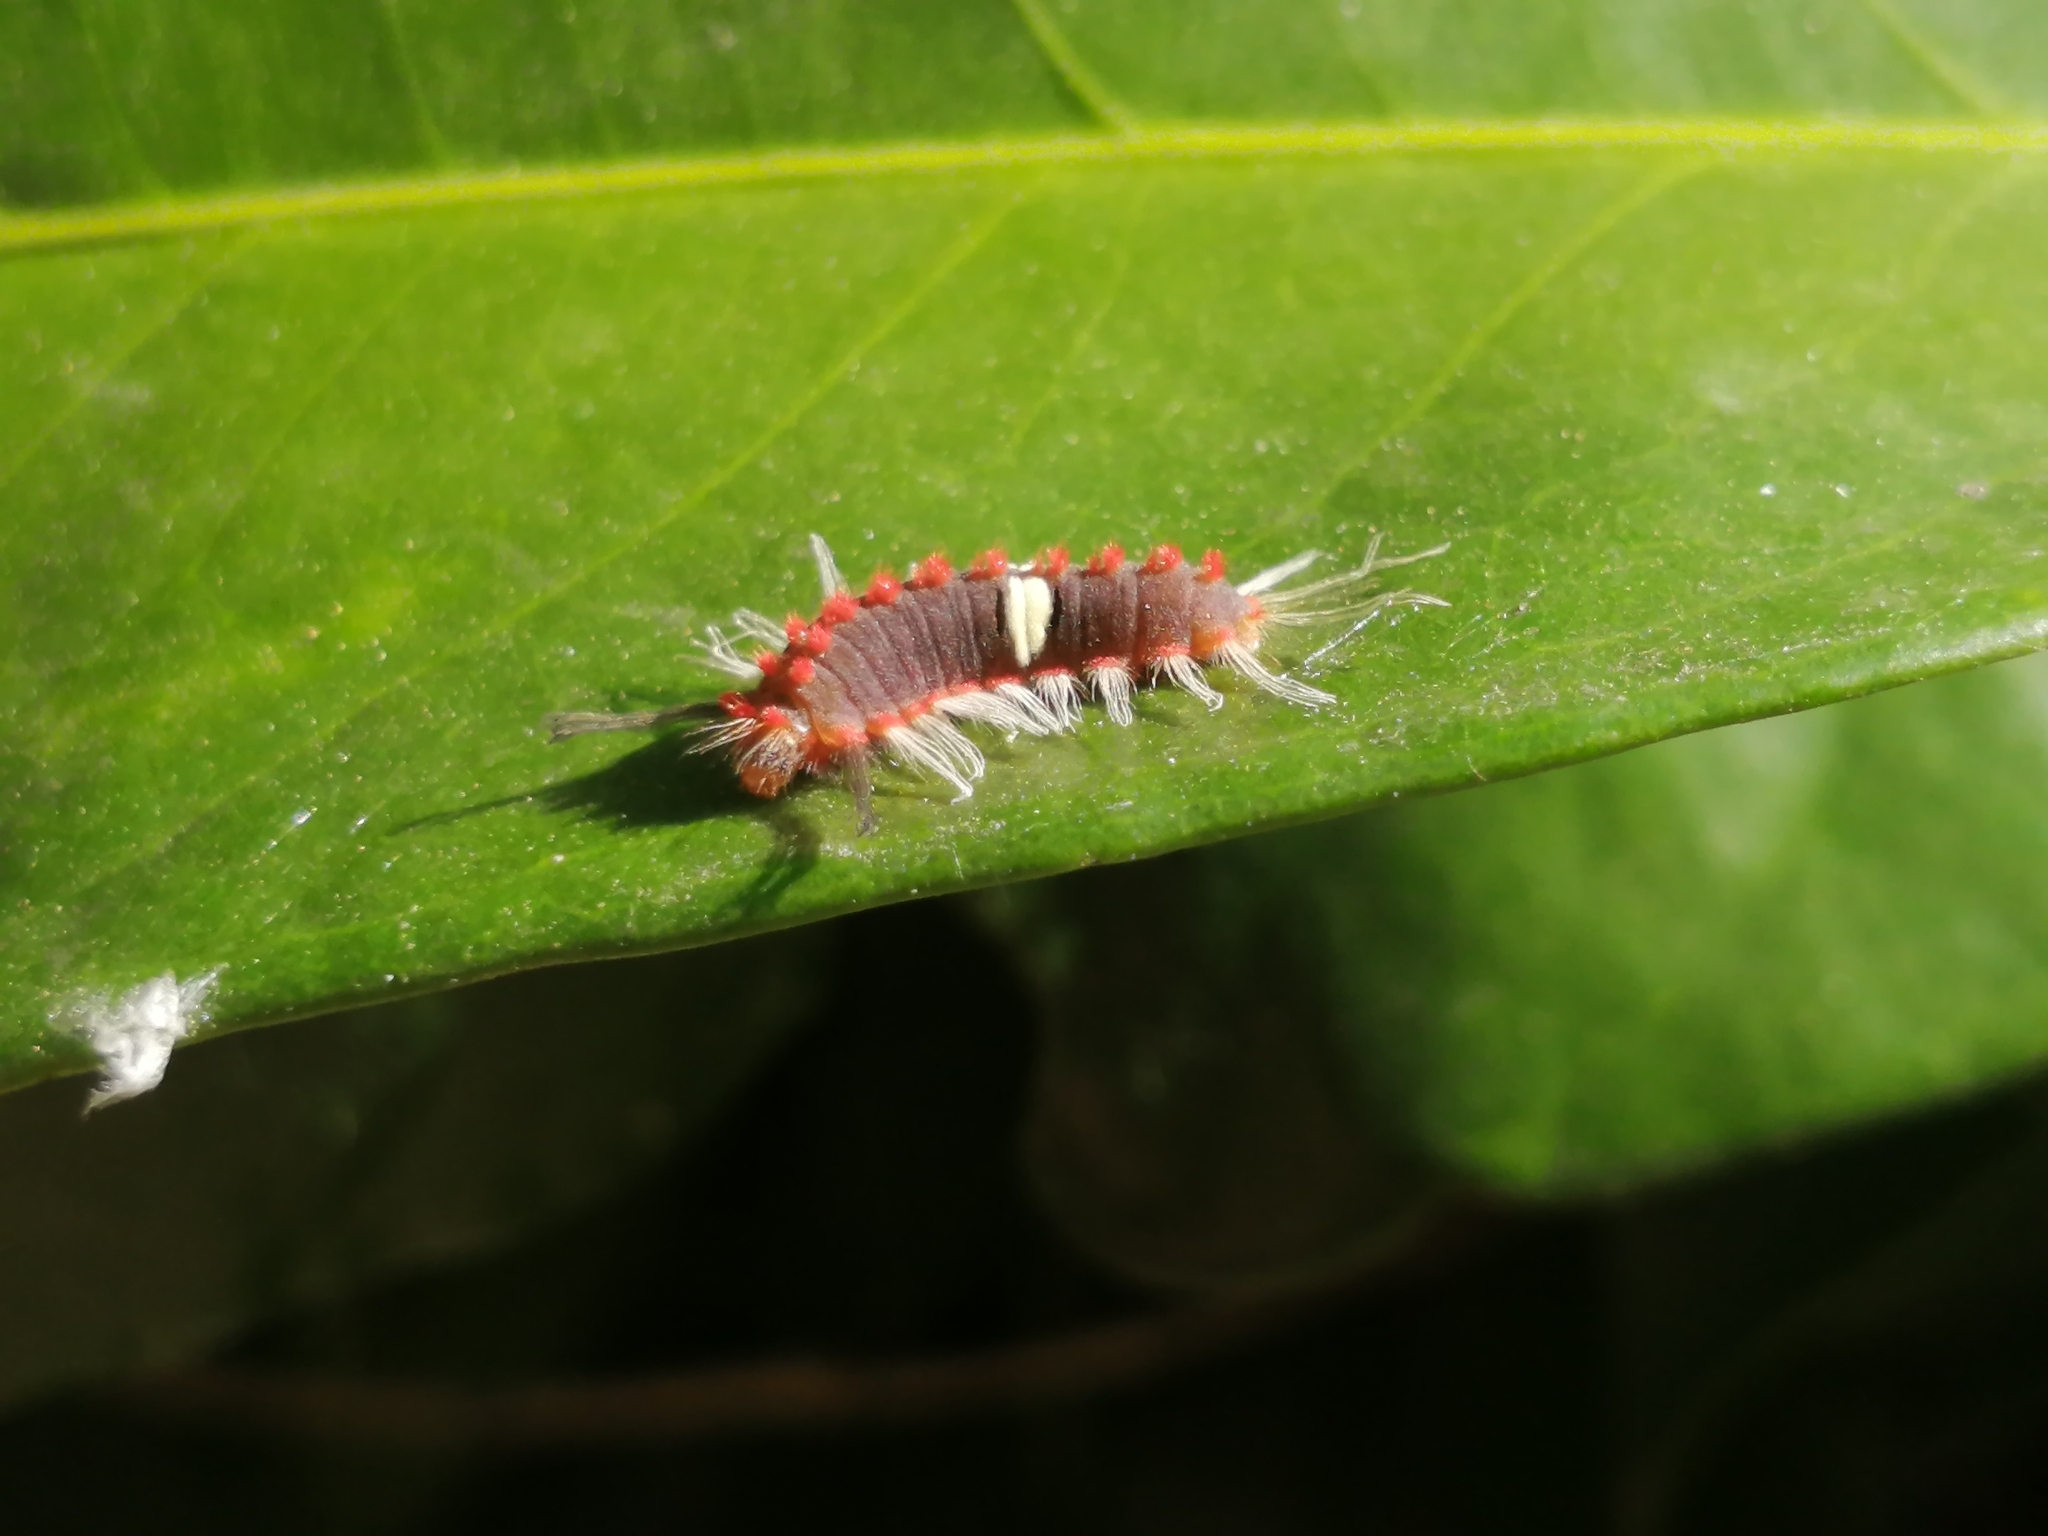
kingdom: Animalia
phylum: Arthropoda
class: Insecta
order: Lepidoptera
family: Riodinidae
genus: Rhetus
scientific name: Rhetus arcius
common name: Long-tailed metalmark
